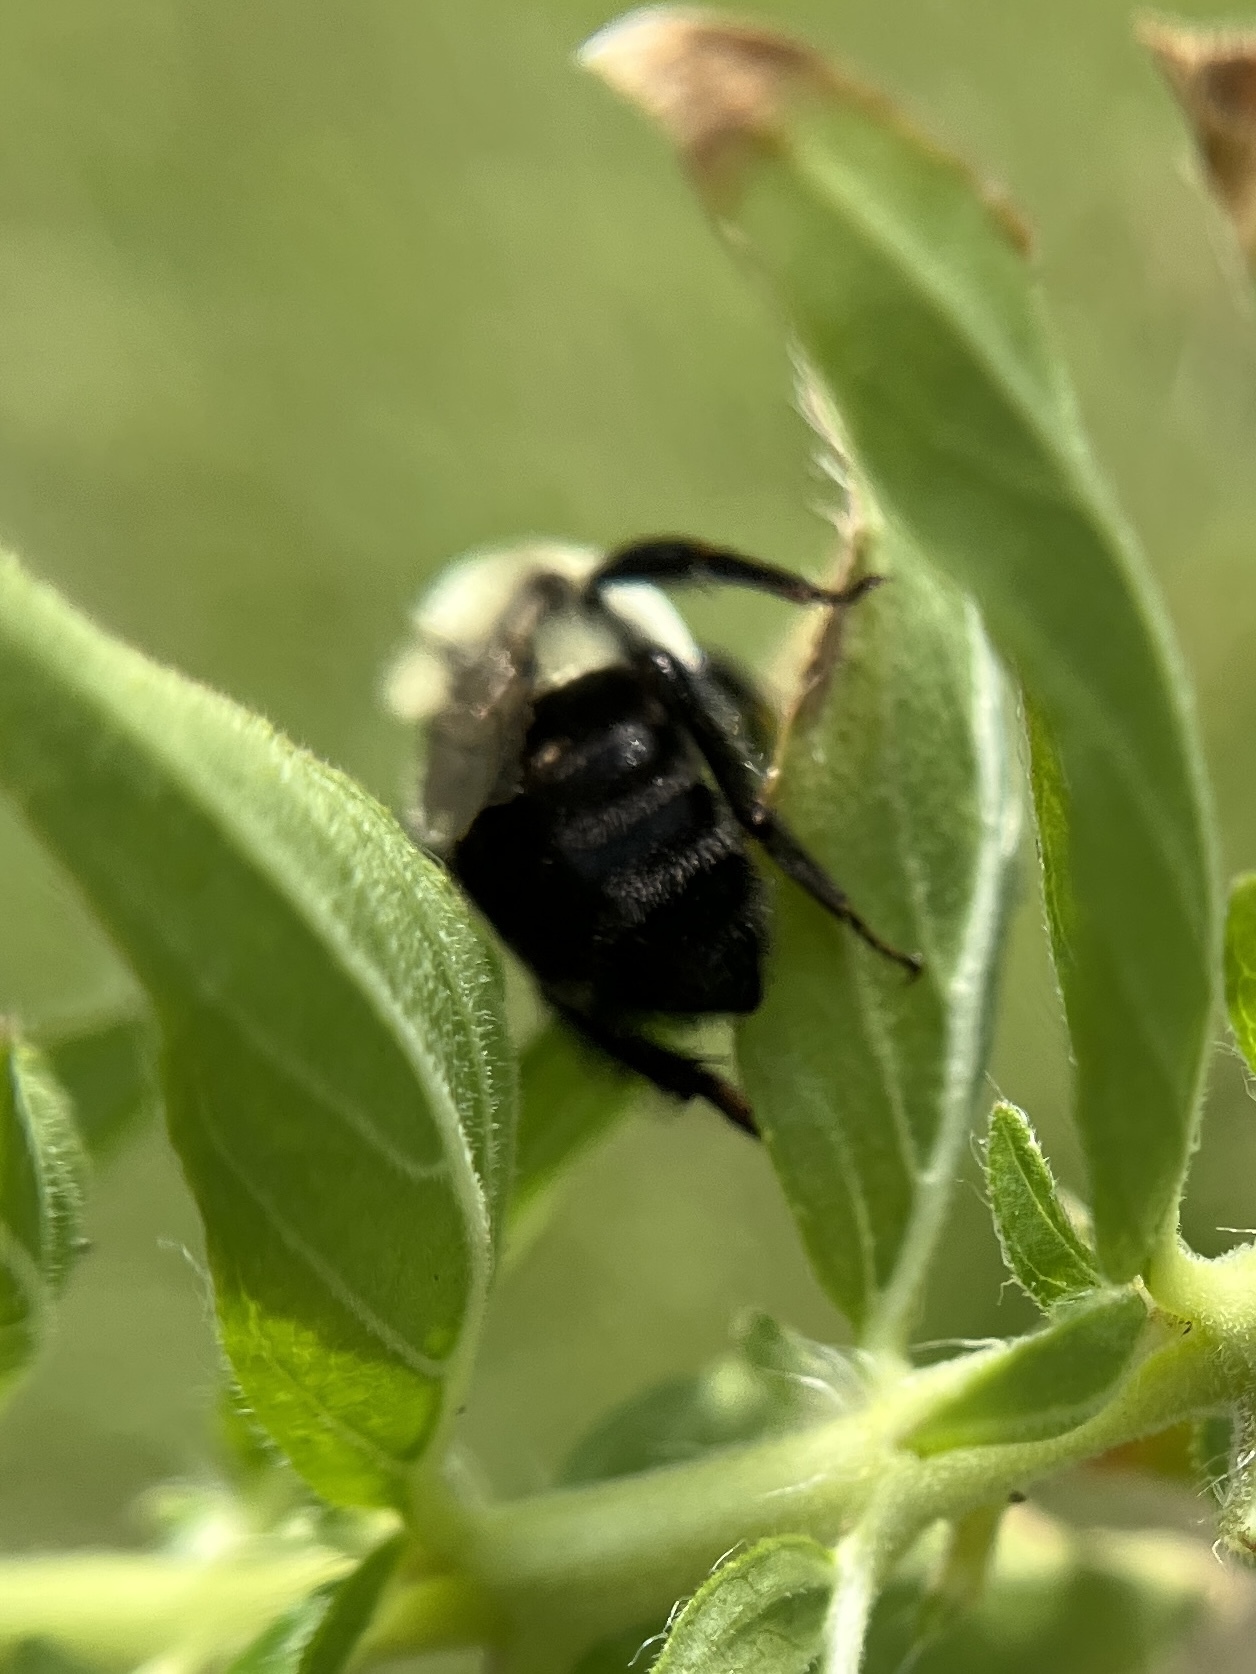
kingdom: Animalia
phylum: Arthropoda
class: Insecta
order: Hymenoptera
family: Apidae
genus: Bombus
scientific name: Bombus impatiens
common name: Common eastern bumble bee
